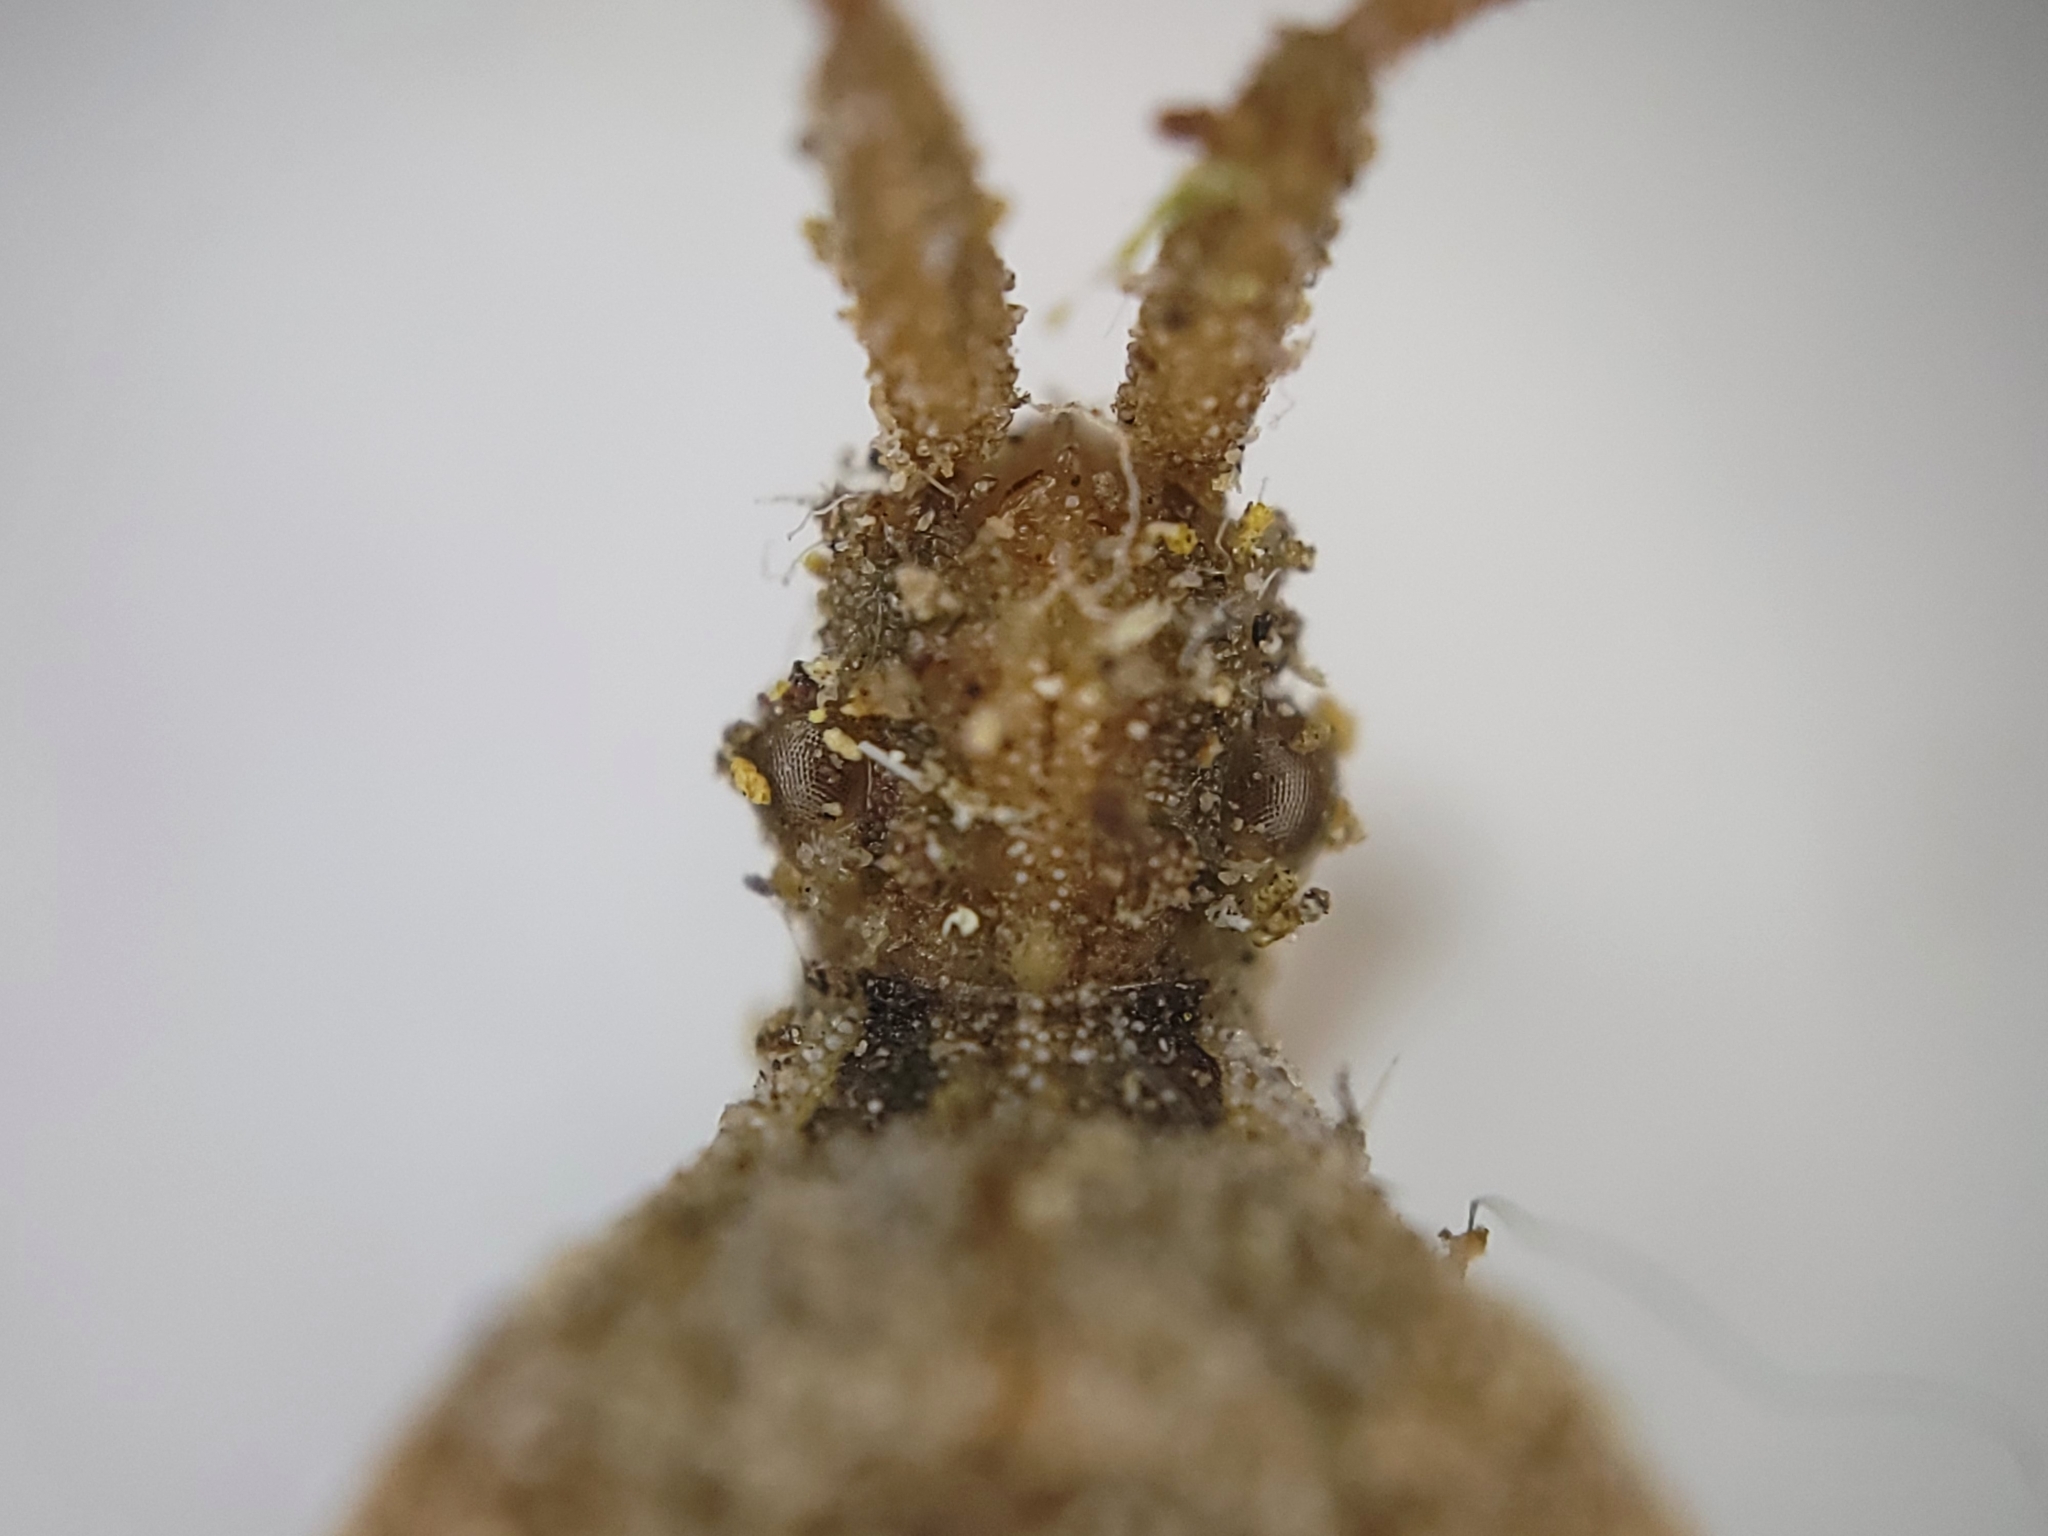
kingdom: Animalia
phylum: Arthropoda
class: Insecta
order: Hemiptera
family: Coreidae
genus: Centrocoris
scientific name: Centrocoris volxemi
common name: Leaf-footed bug
